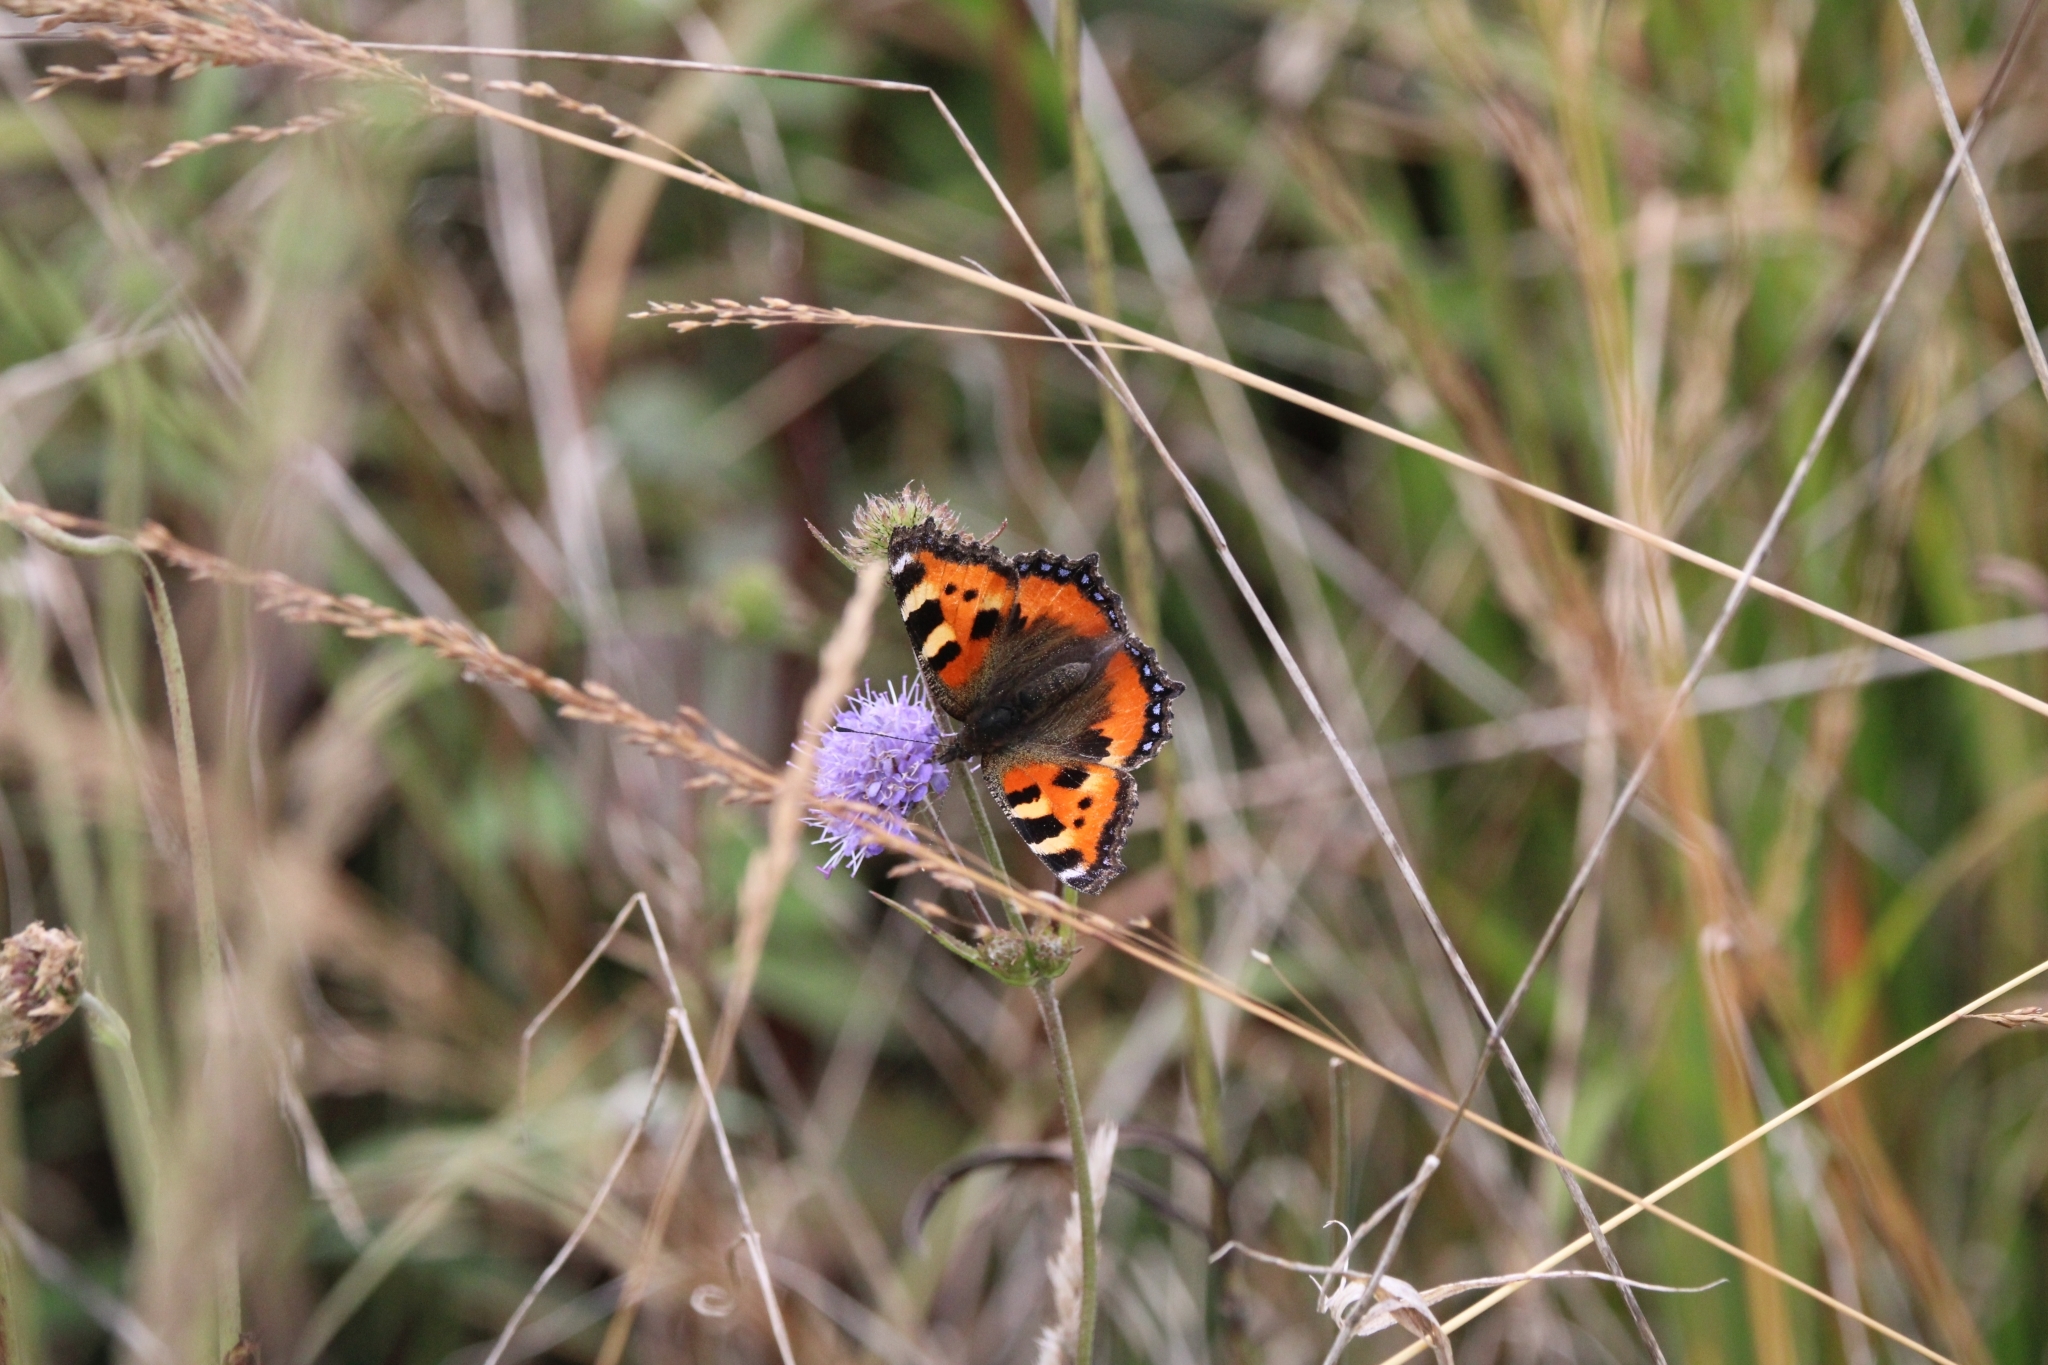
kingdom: Animalia
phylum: Arthropoda
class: Insecta
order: Lepidoptera
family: Nymphalidae
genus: Aglais
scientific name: Aglais urticae
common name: Small tortoiseshell
